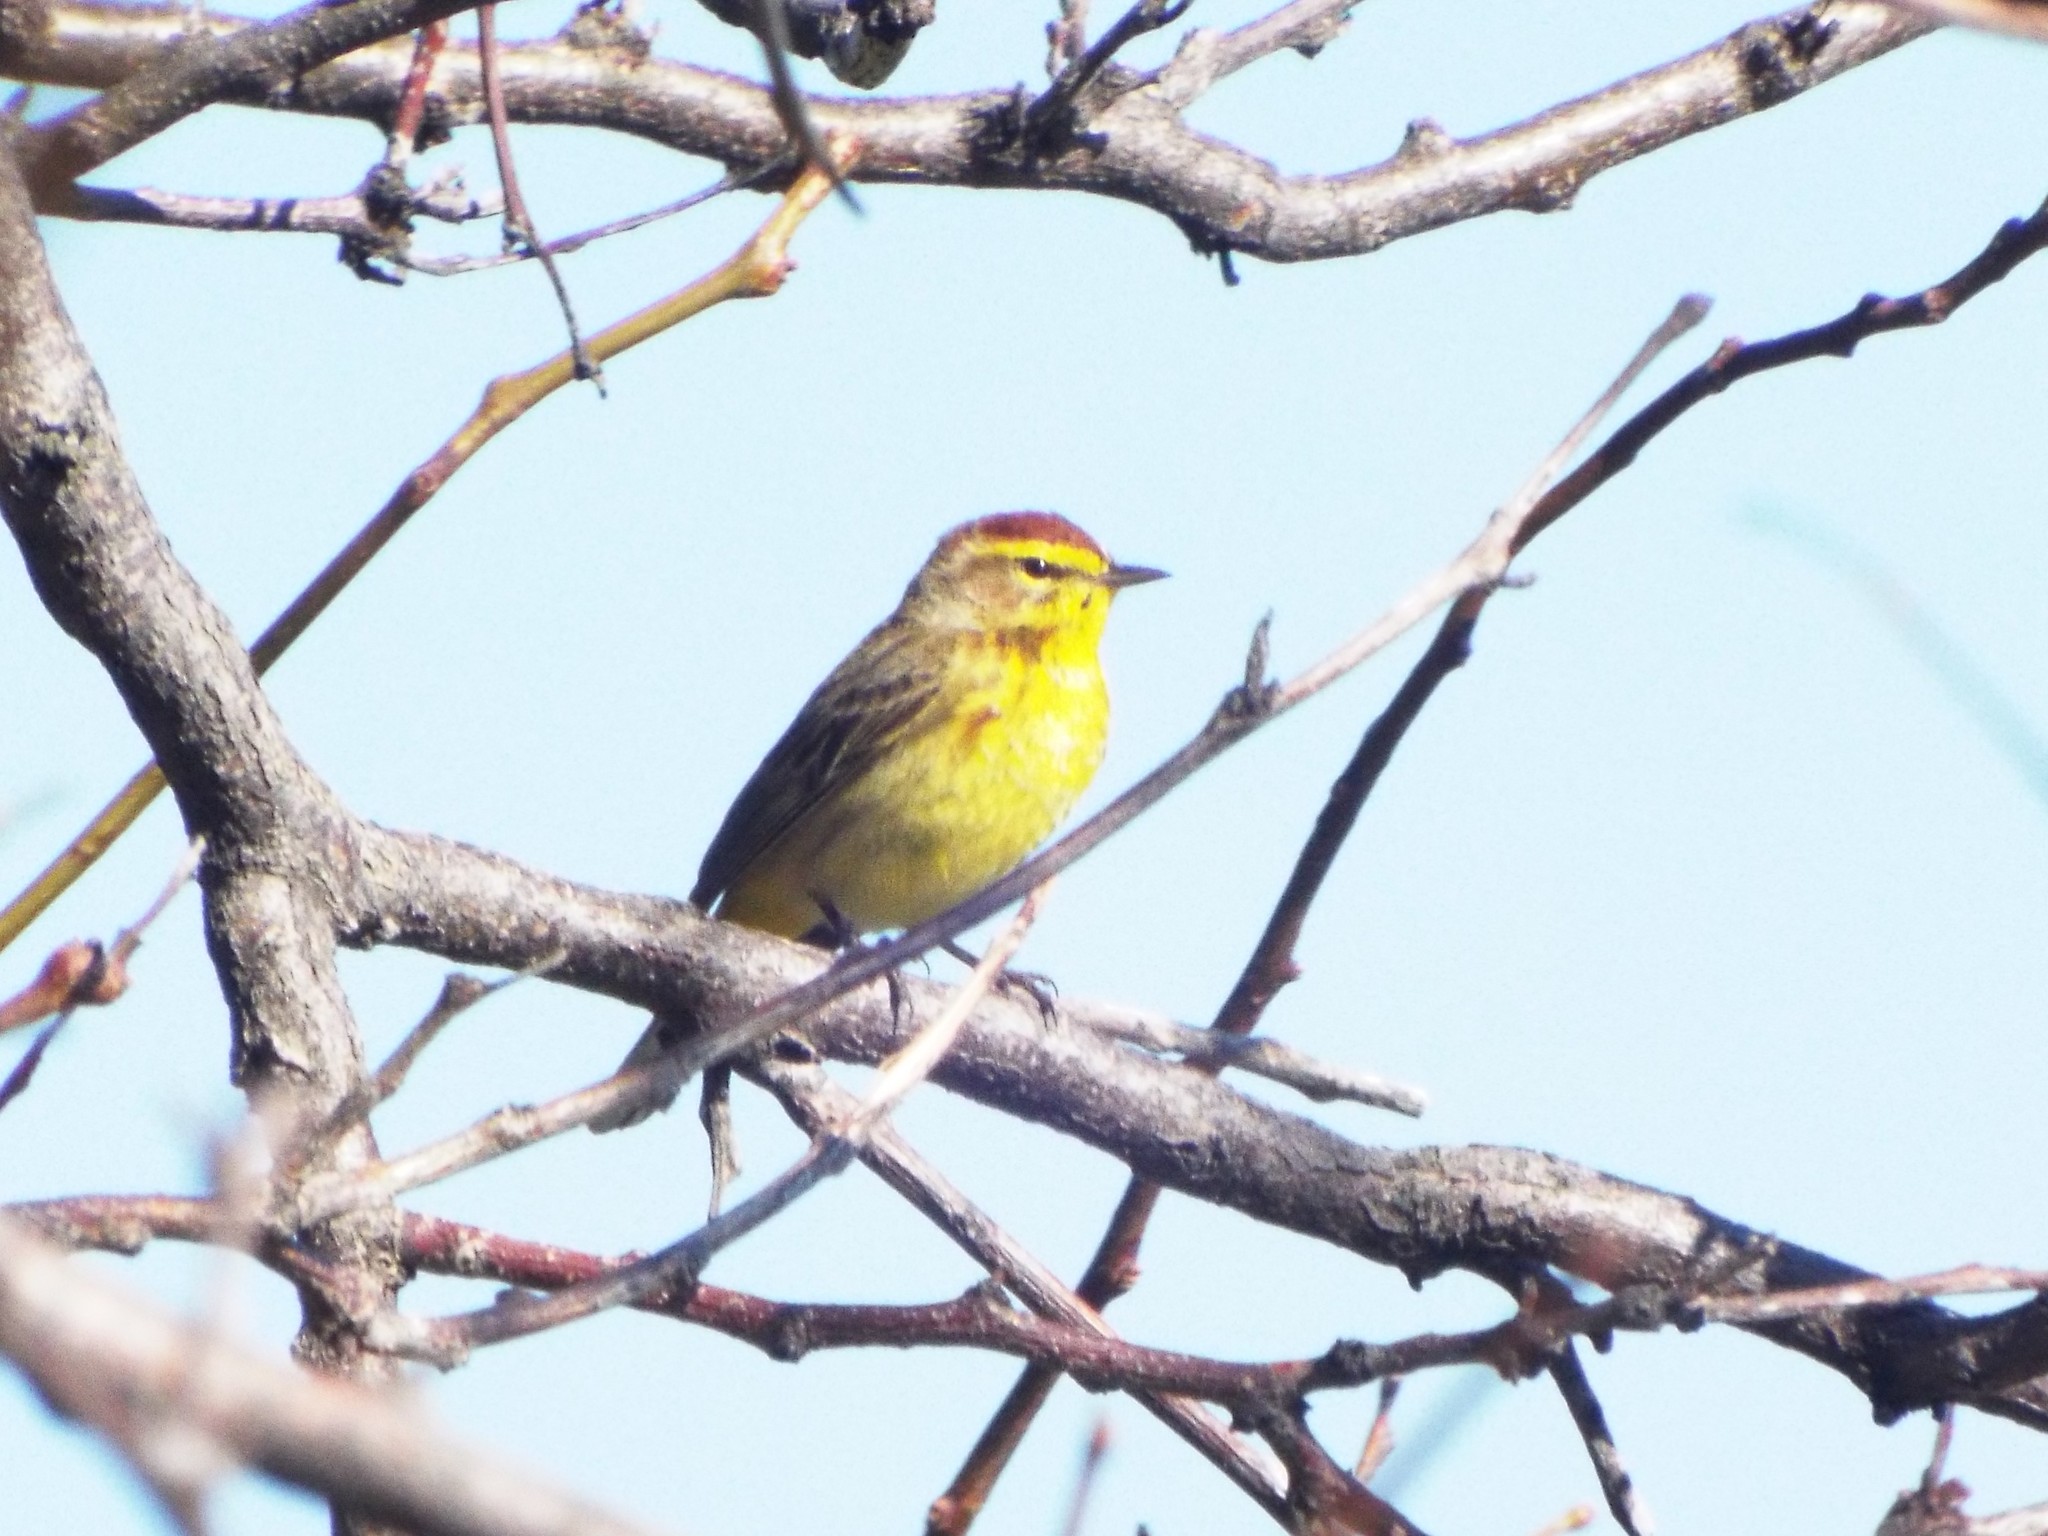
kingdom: Animalia
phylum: Chordata
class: Aves
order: Passeriformes
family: Parulidae
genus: Setophaga
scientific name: Setophaga palmarum
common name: Palm warbler
